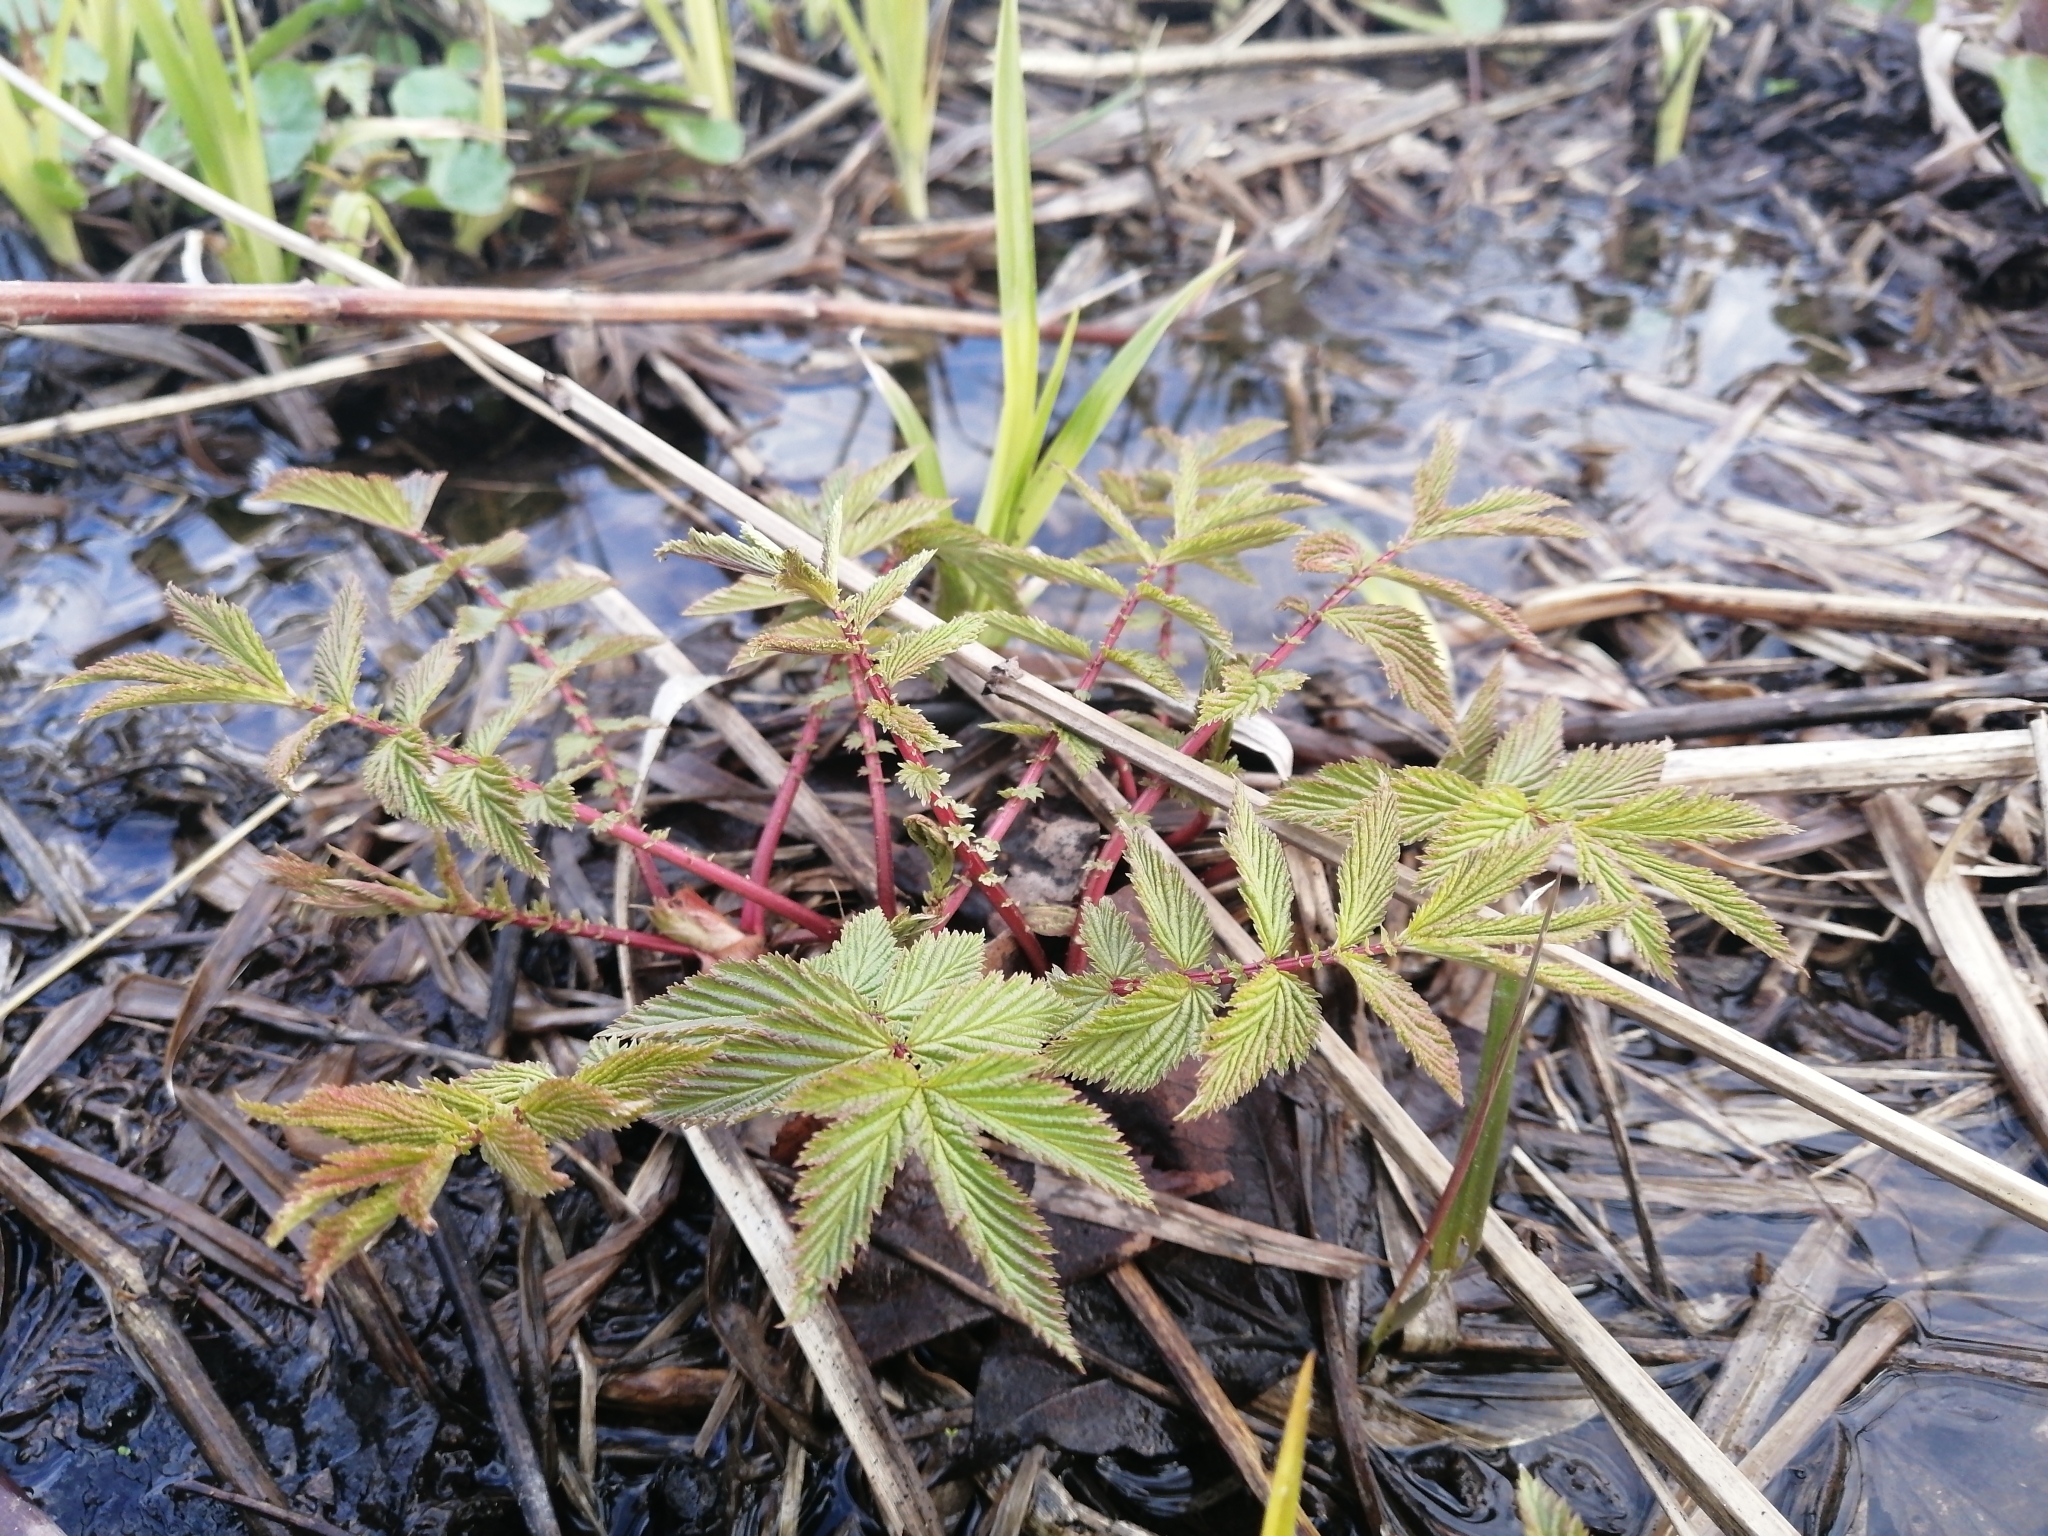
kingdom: Plantae
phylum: Tracheophyta
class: Magnoliopsida
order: Rosales
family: Rosaceae
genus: Filipendula
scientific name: Filipendula ulmaria
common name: Meadowsweet
